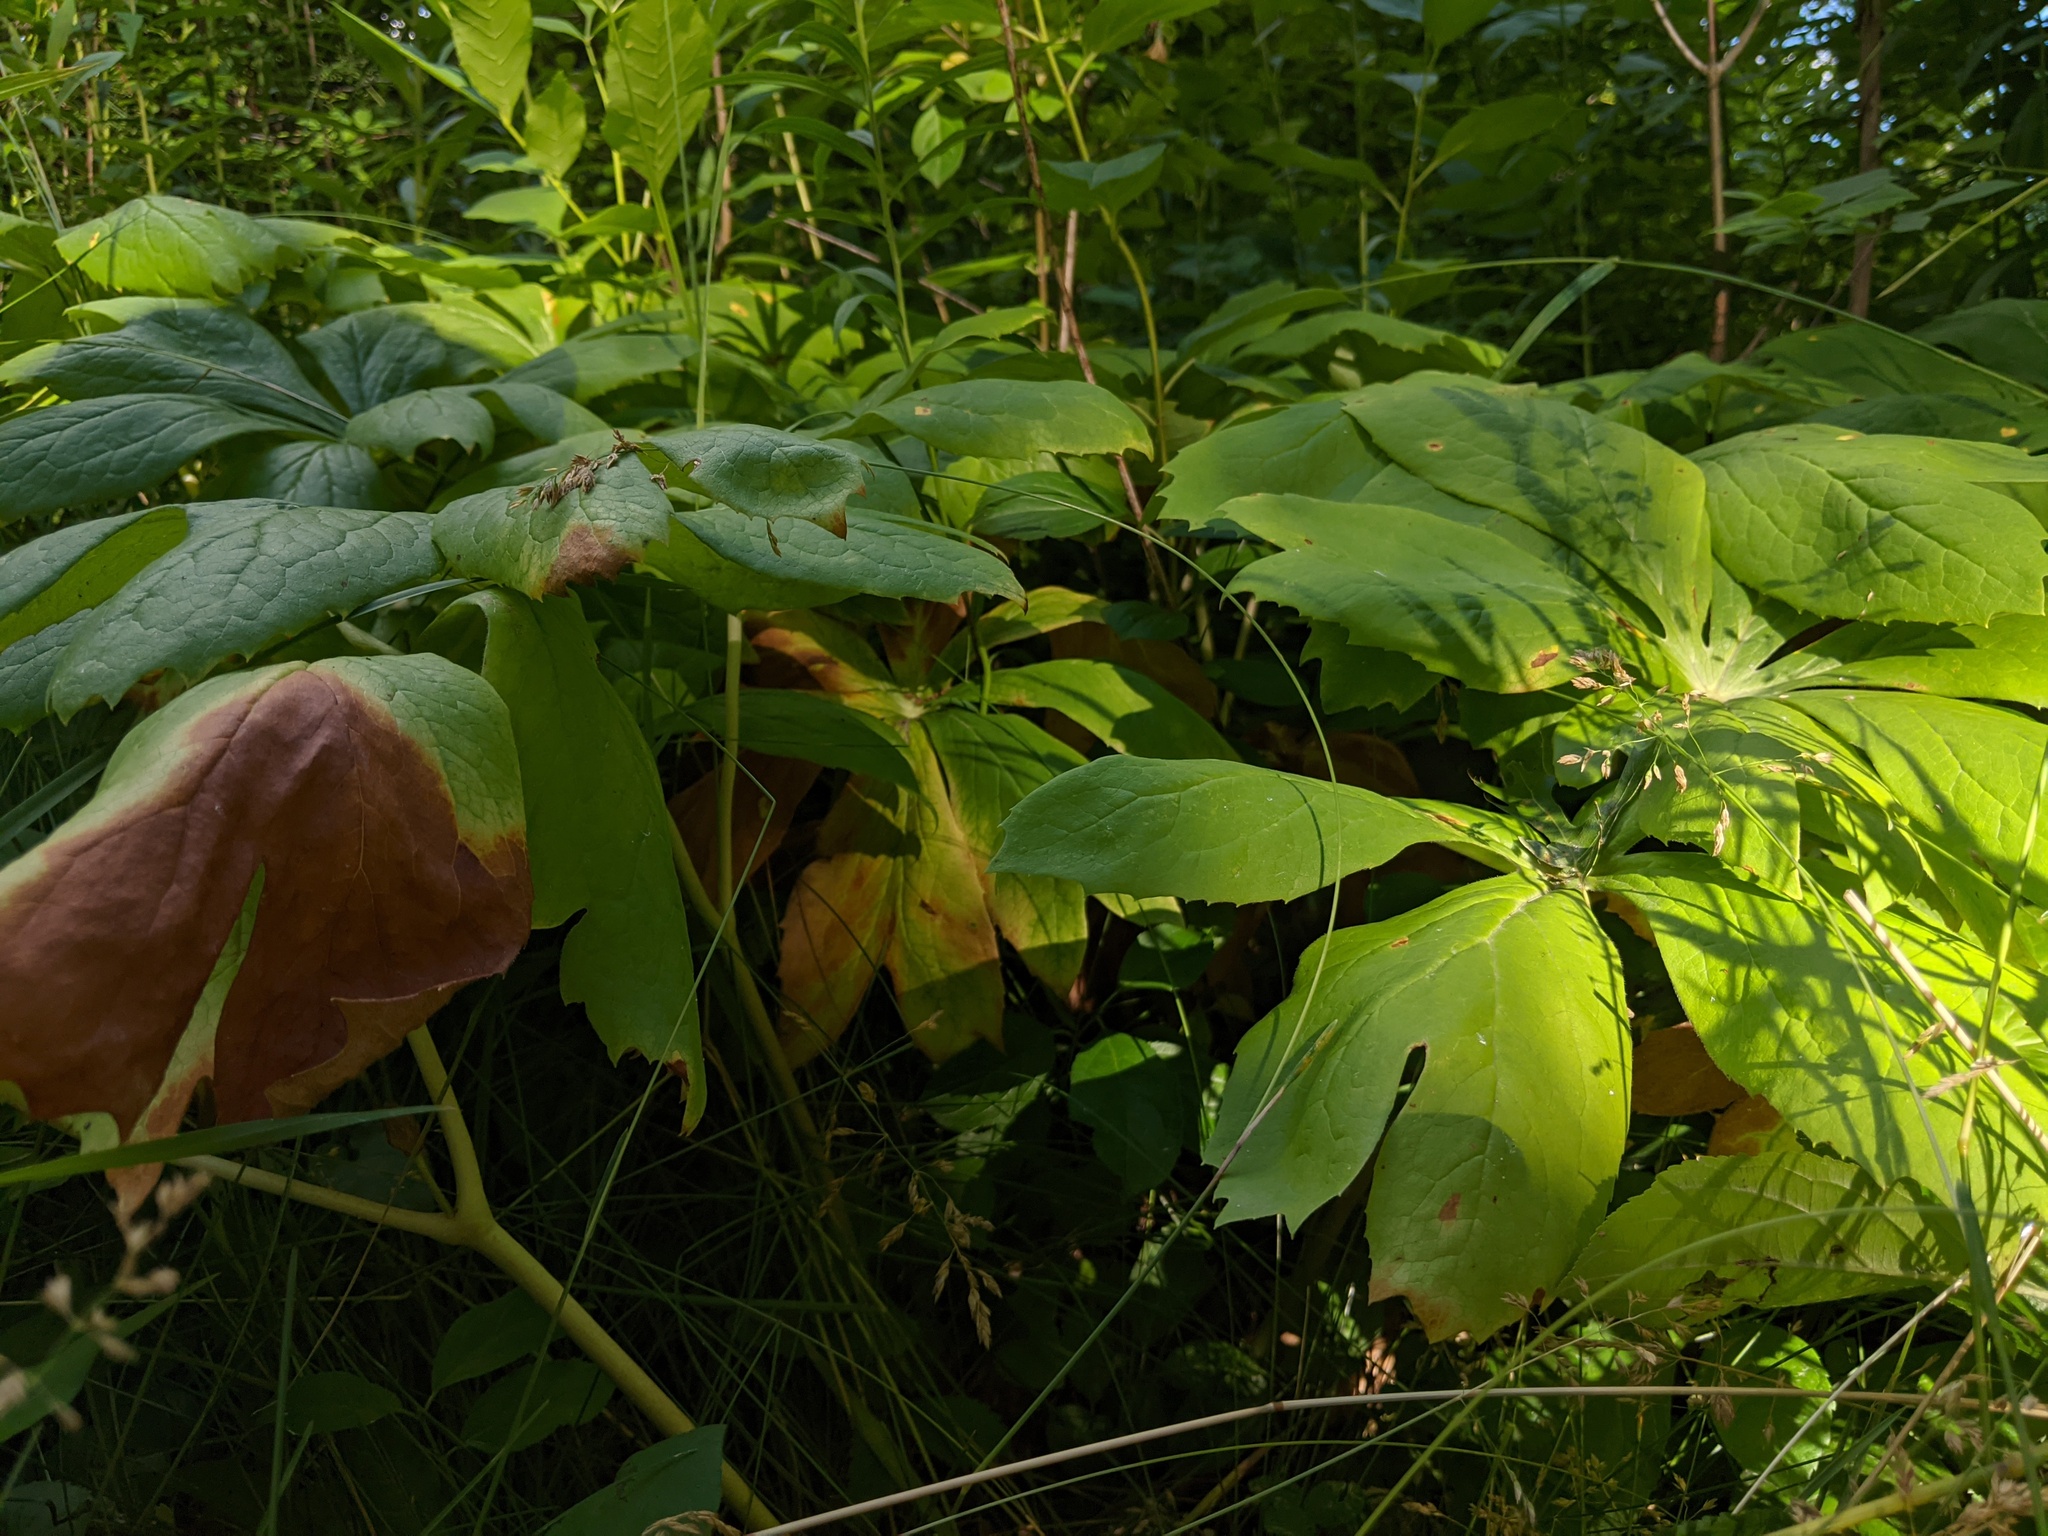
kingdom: Plantae
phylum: Tracheophyta
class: Magnoliopsida
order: Ranunculales
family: Berberidaceae
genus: Podophyllum
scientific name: Podophyllum peltatum
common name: Wild mandrake
